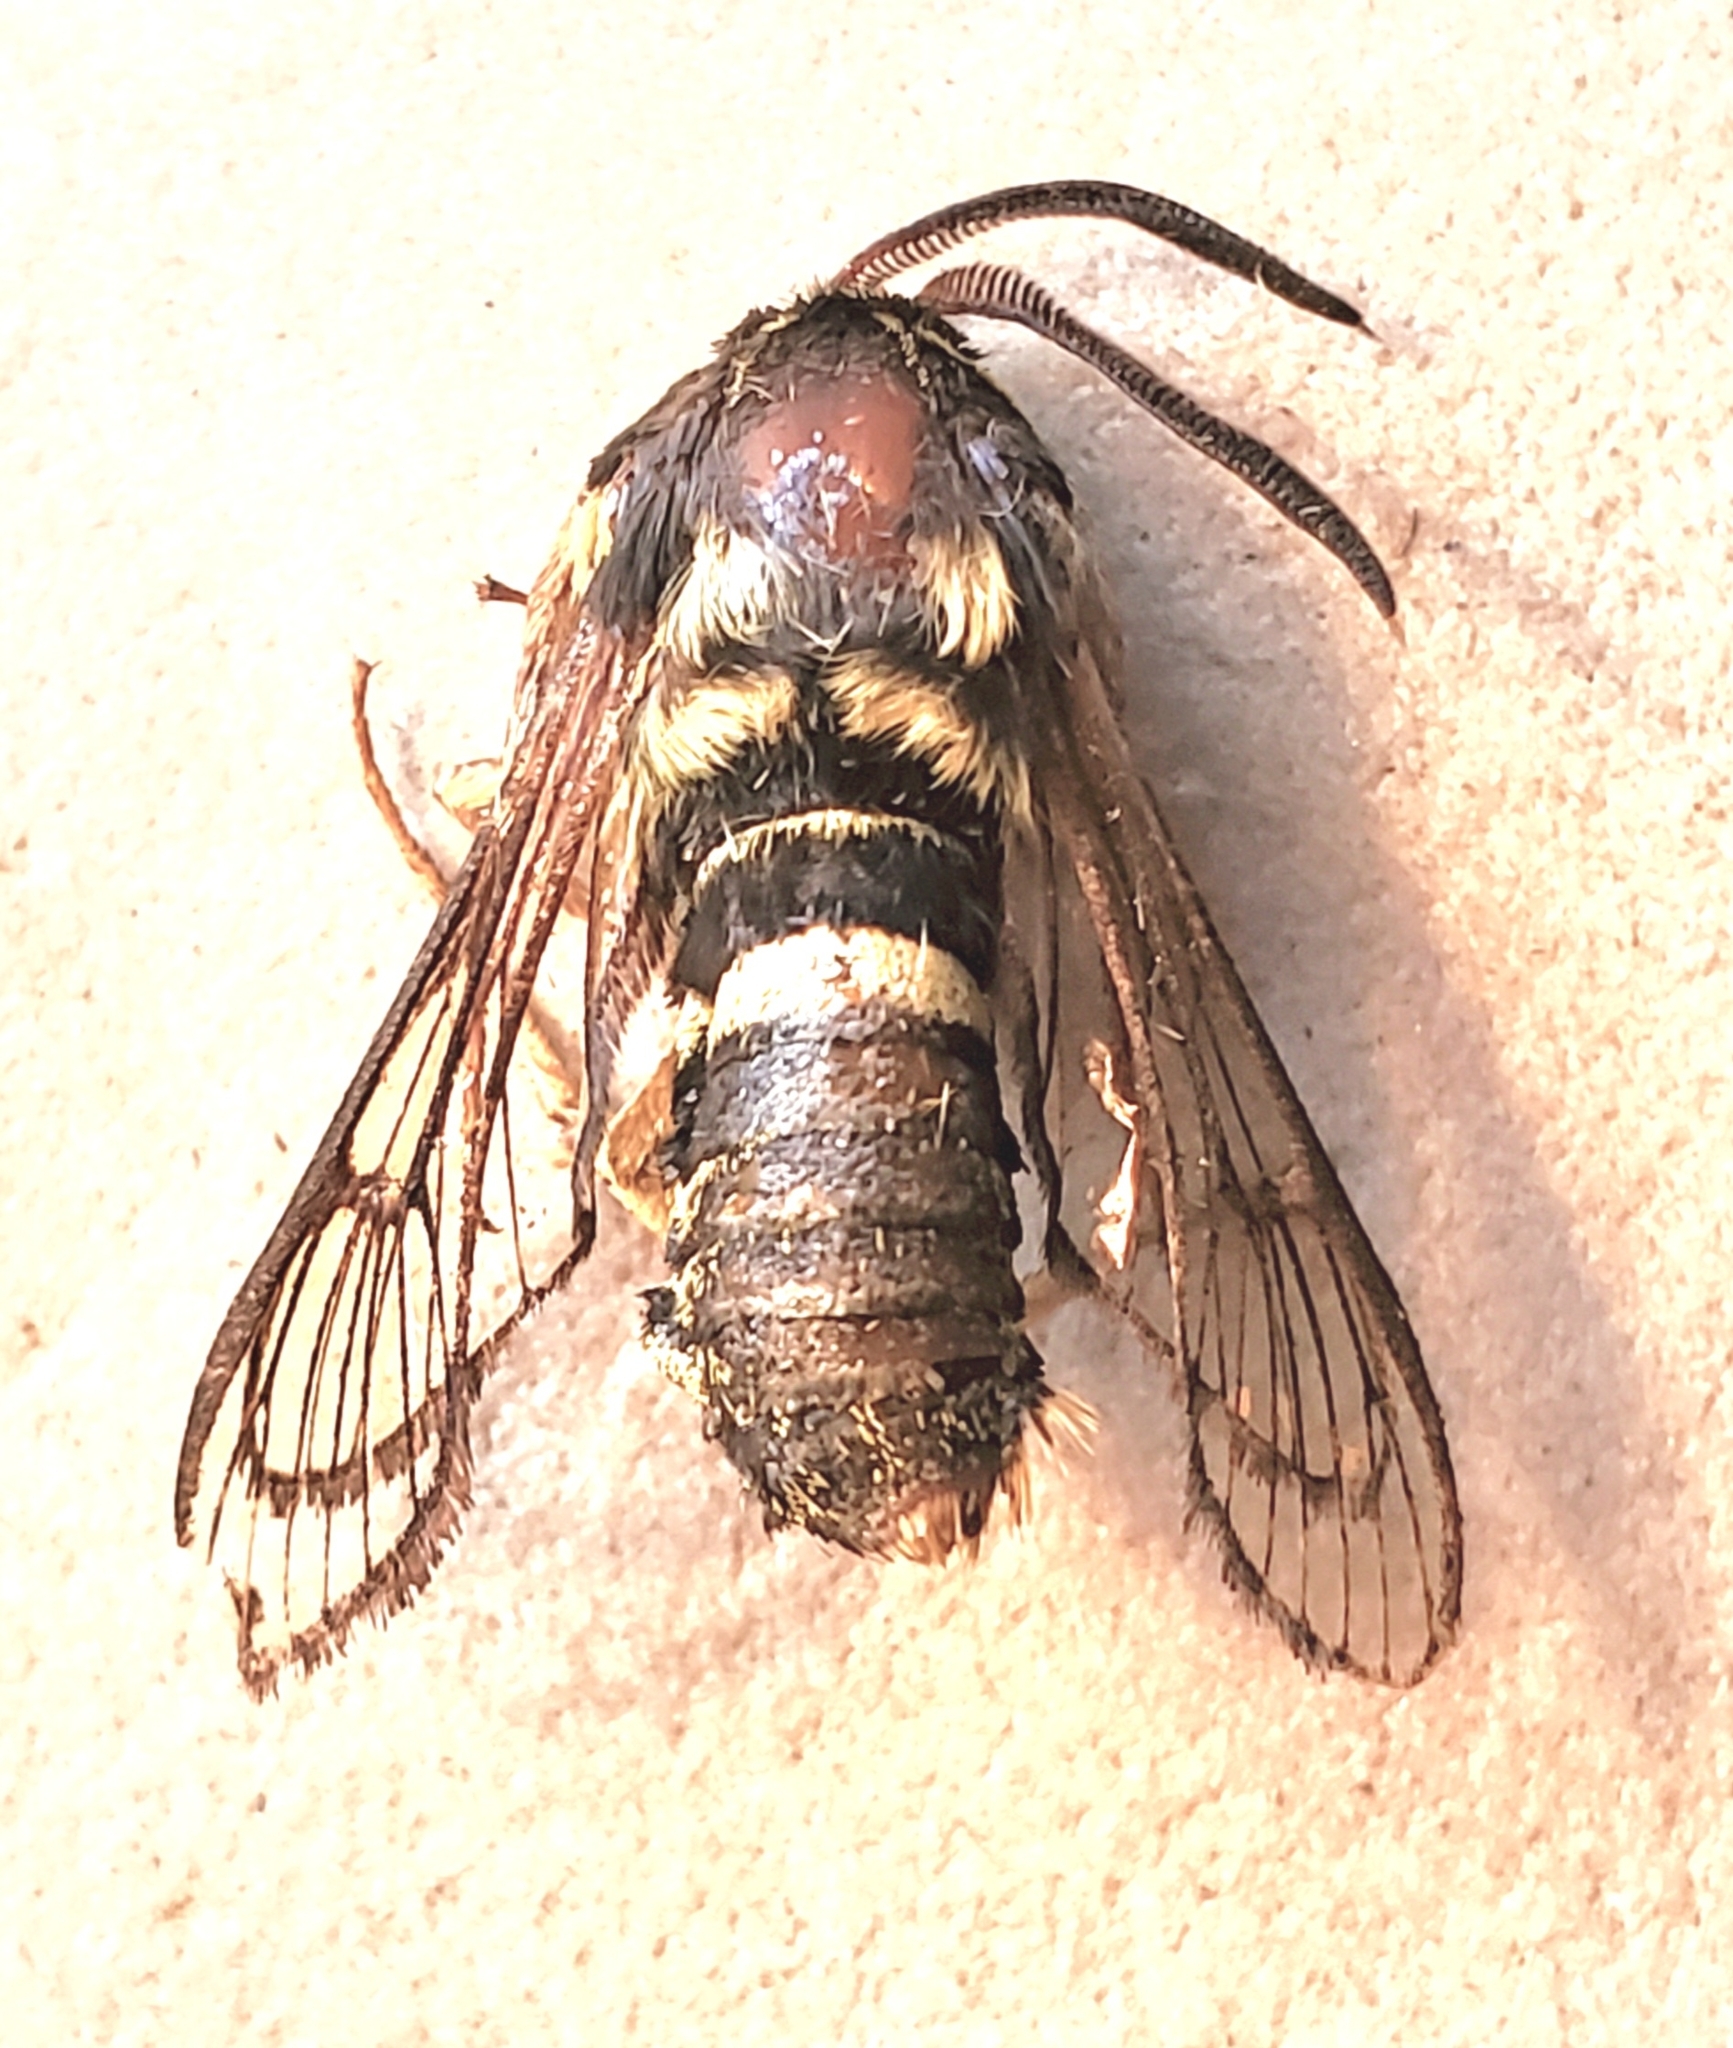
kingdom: Animalia
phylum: Arthropoda
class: Insecta
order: Lepidoptera
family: Sesiidae
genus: Sesia
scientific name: Sesia tibiale
